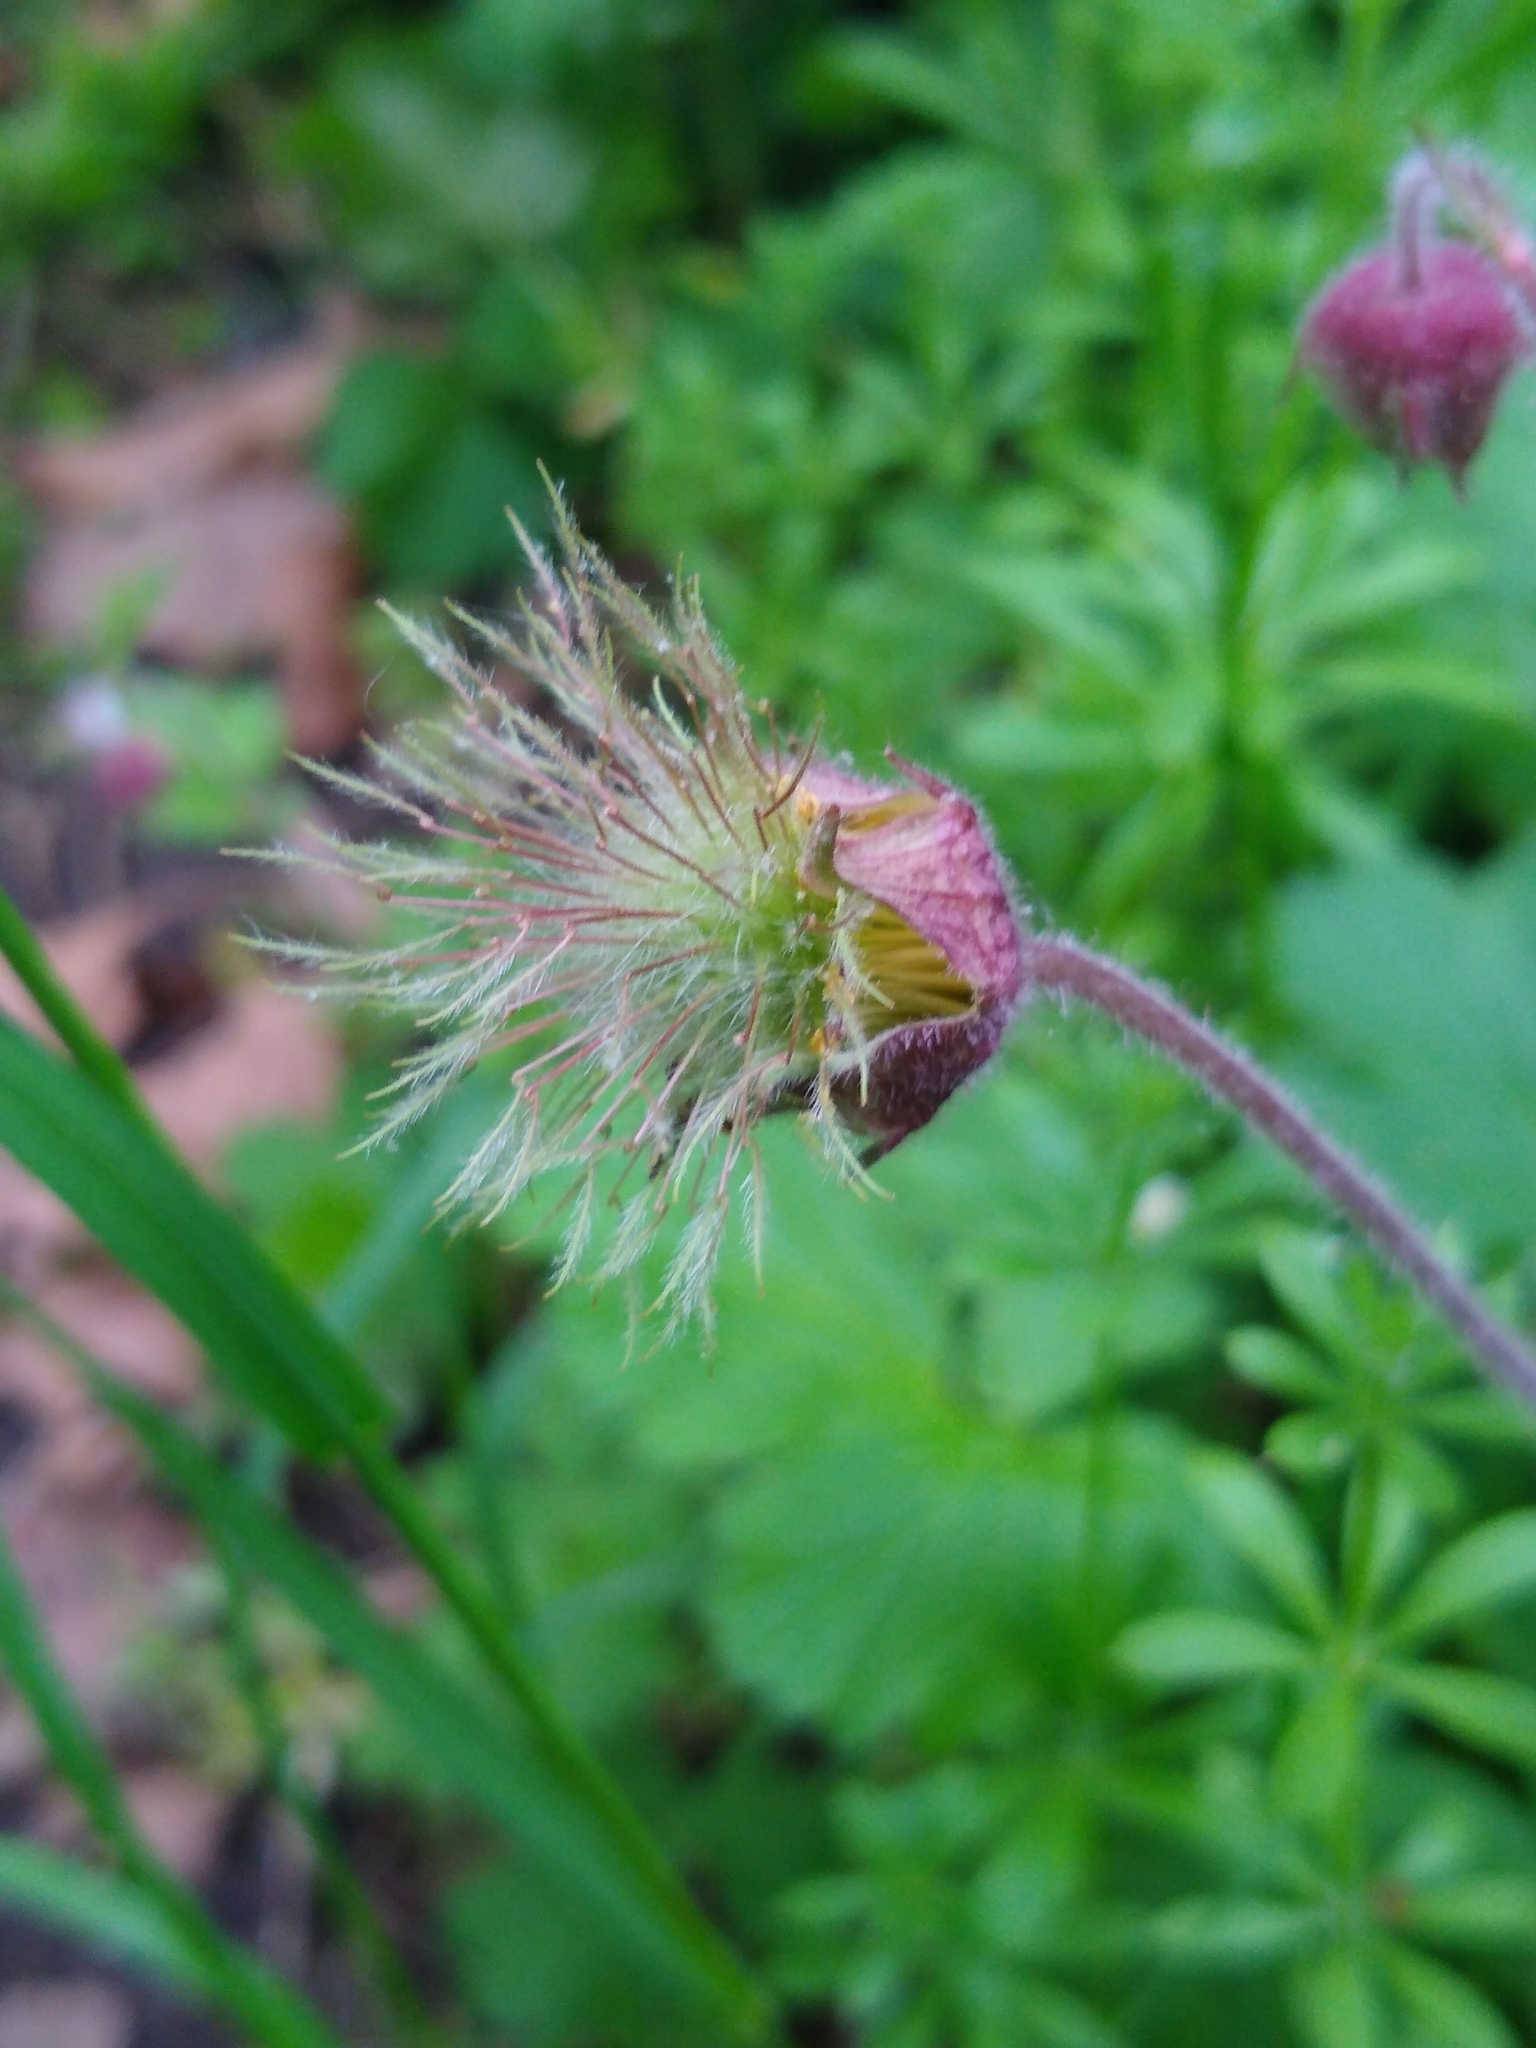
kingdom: Plantae
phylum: Tracheophyta
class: Magnoliopsida
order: Rosales
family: Rosaceae
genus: Geum
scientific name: Geum rivale
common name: Water avens
